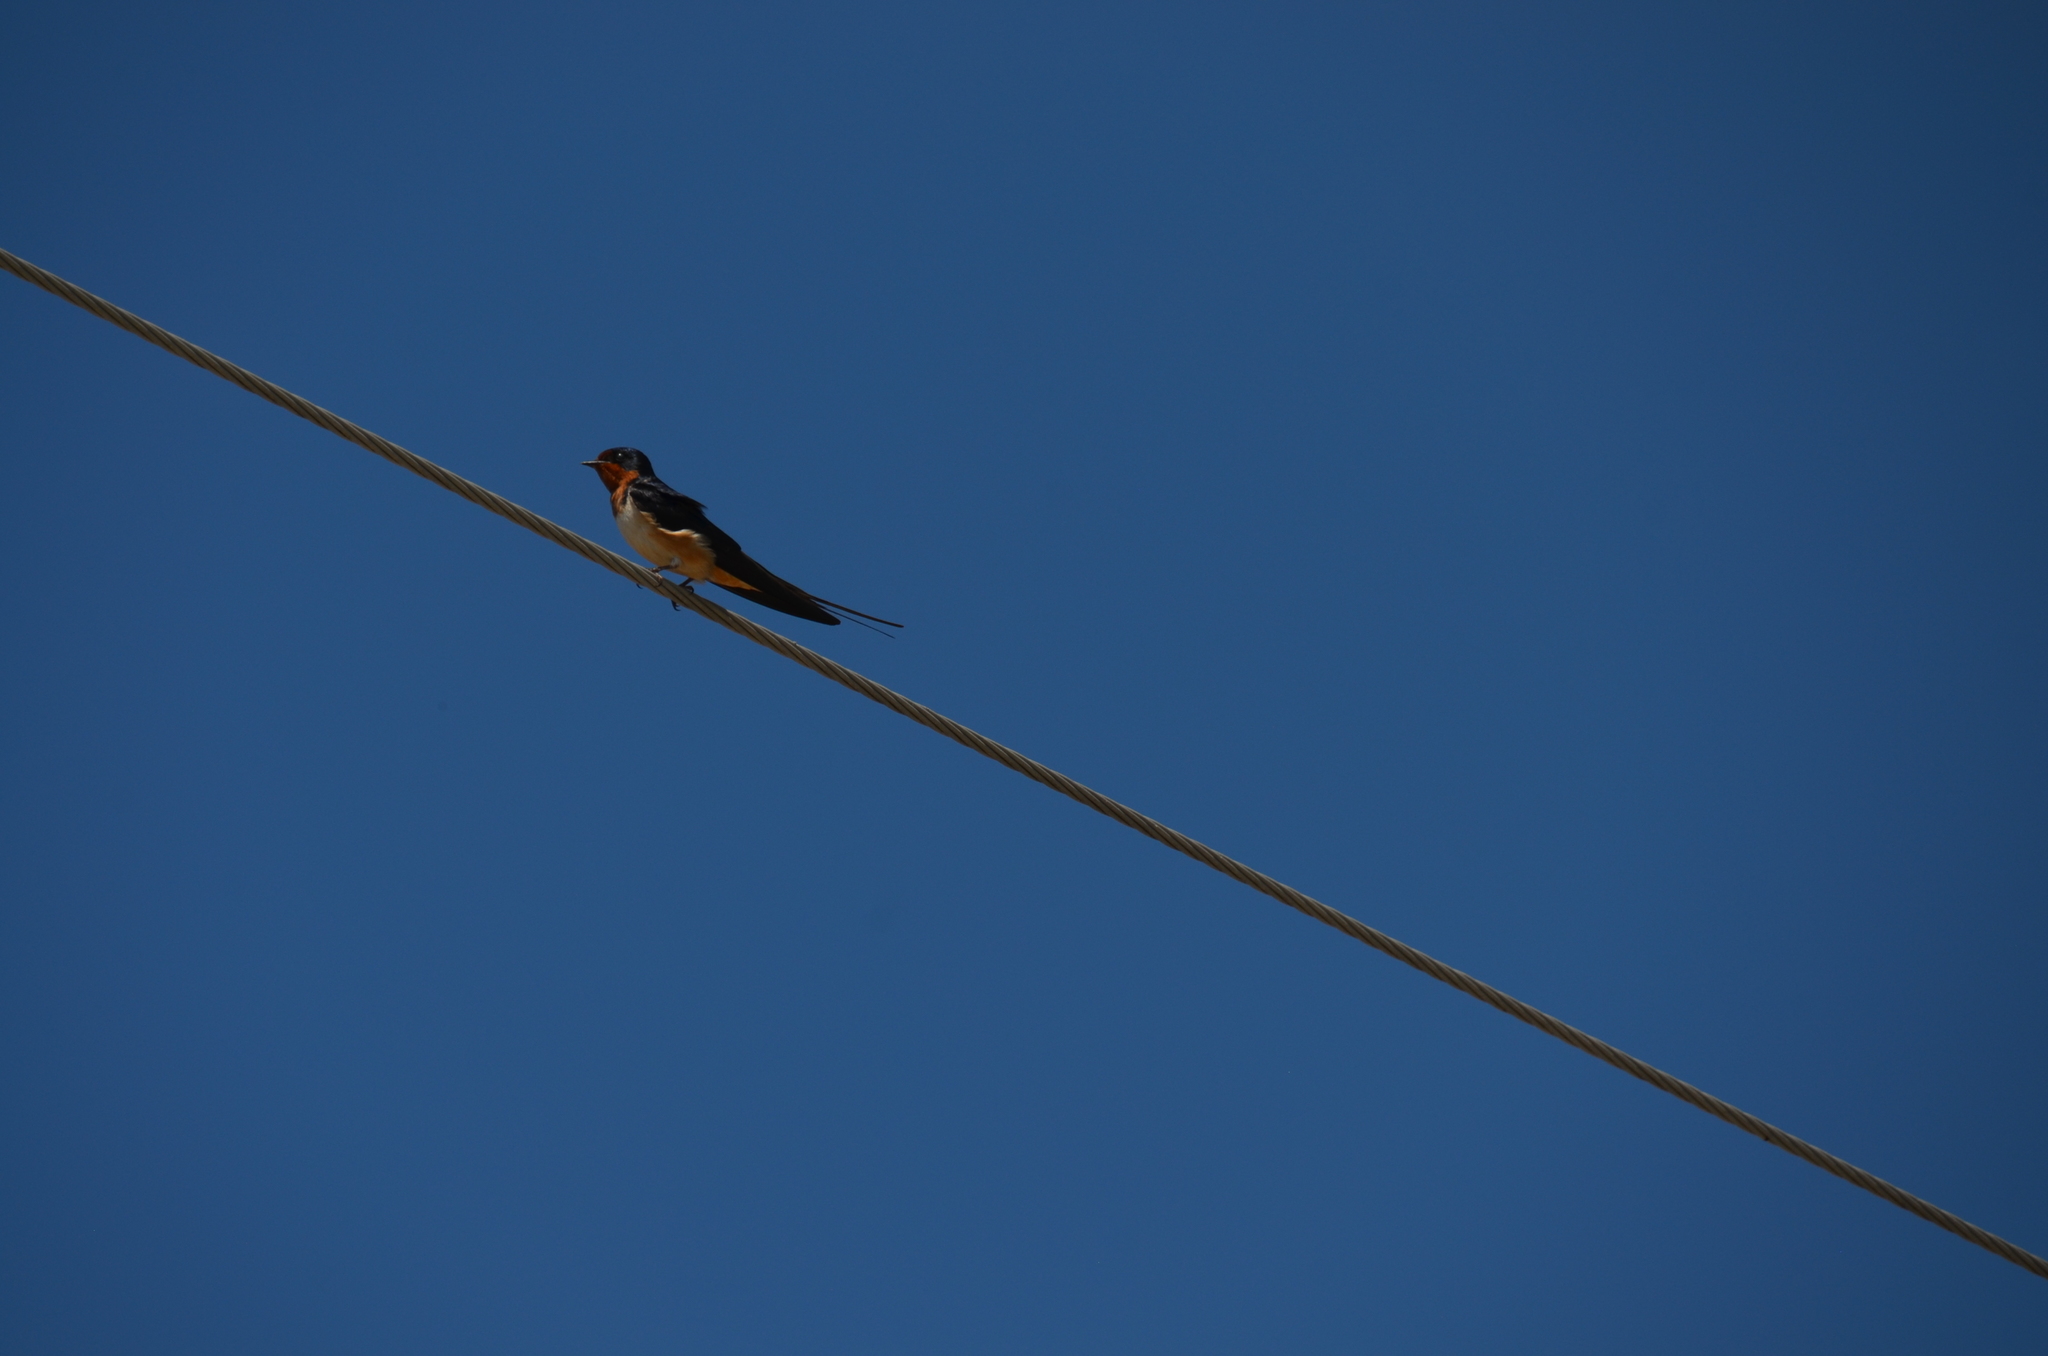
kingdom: Animalia
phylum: Chordata
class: Aves
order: Passeriformes
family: Hirundinidae
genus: Hirundo
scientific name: Hirundo rustica
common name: Barn swallow
